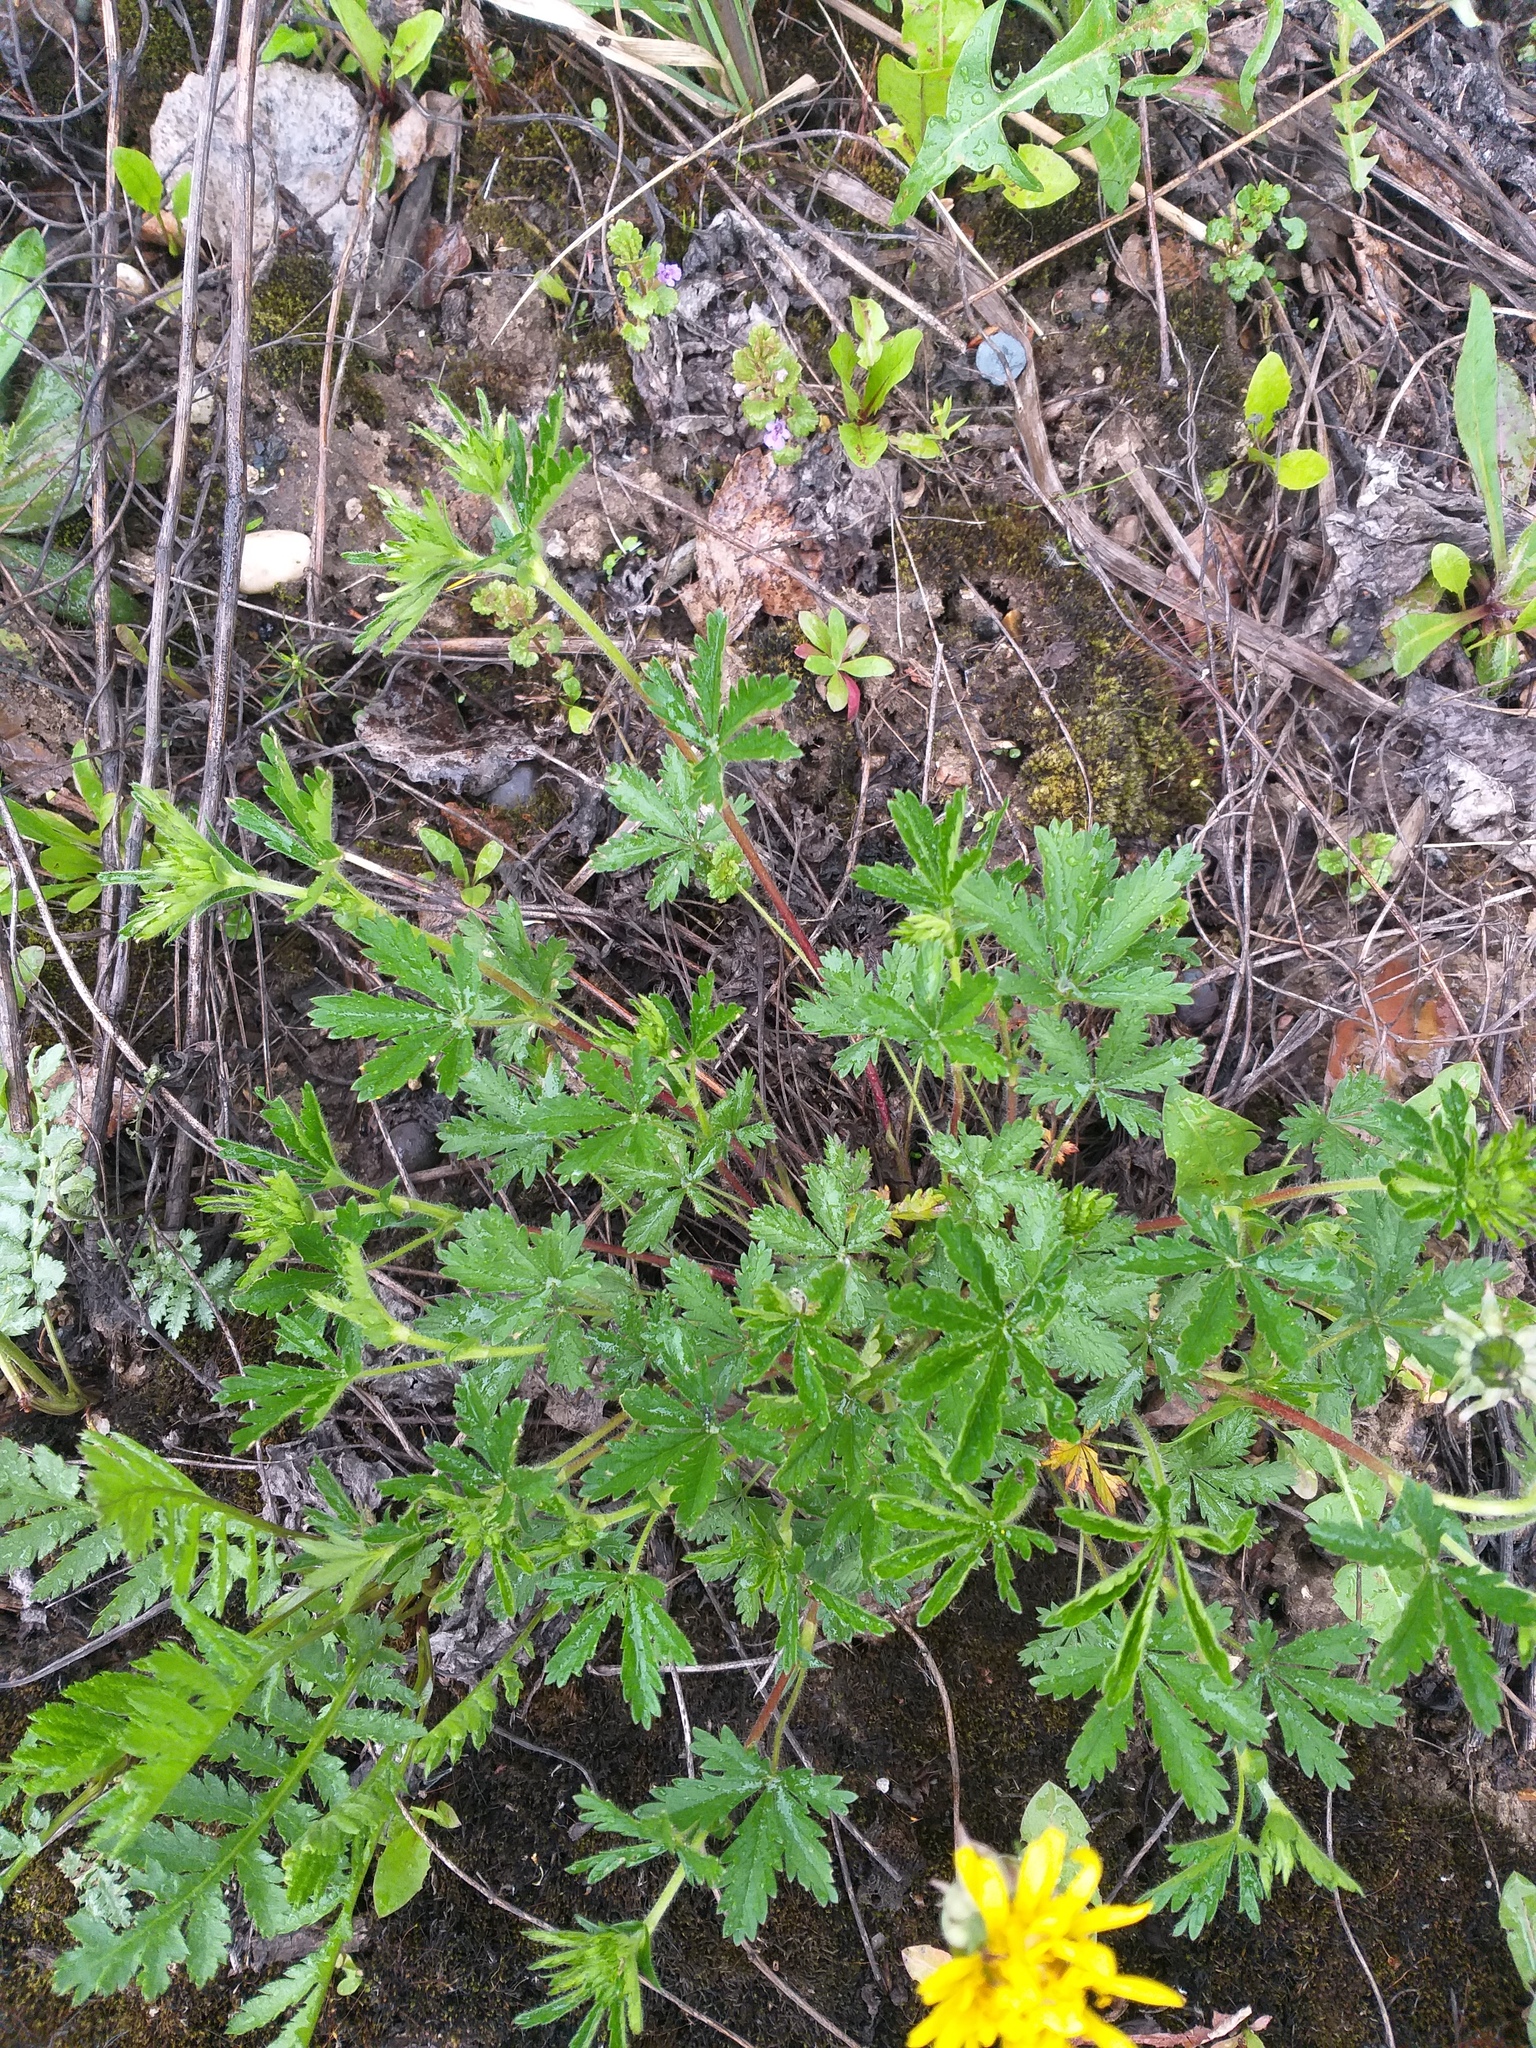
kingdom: Plantae
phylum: Tracheophyta
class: Magnoliopsida
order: Rosales
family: Rosaceae
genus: Potentilla
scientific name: Potentilla thuringiaca
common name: European cinquefoil
